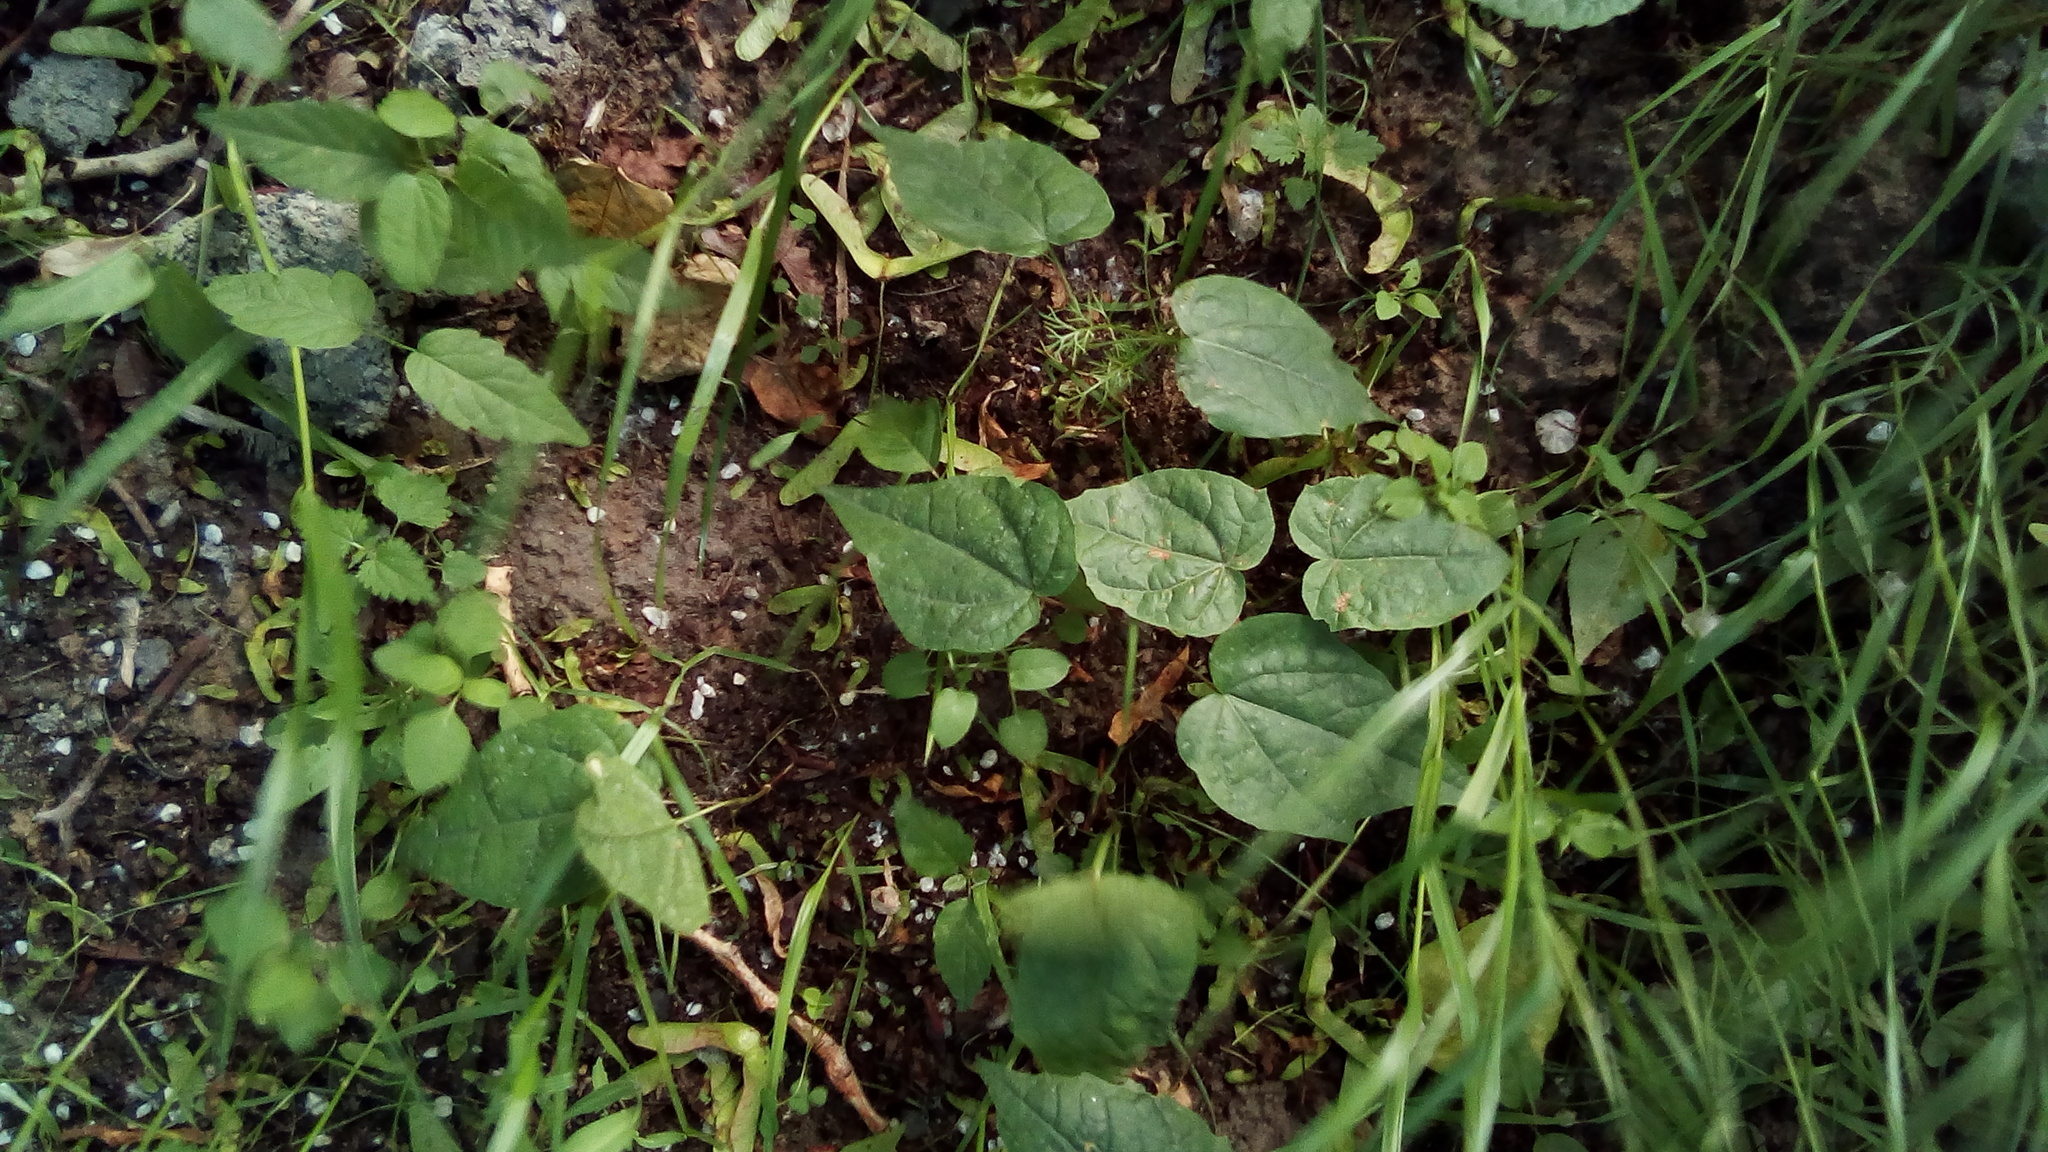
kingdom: Plantae
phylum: Tracheophyta
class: Magnoliopsida
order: Sapindales
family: Sapindaceae
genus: Acer
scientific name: Acer platanoides
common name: Norway maple
